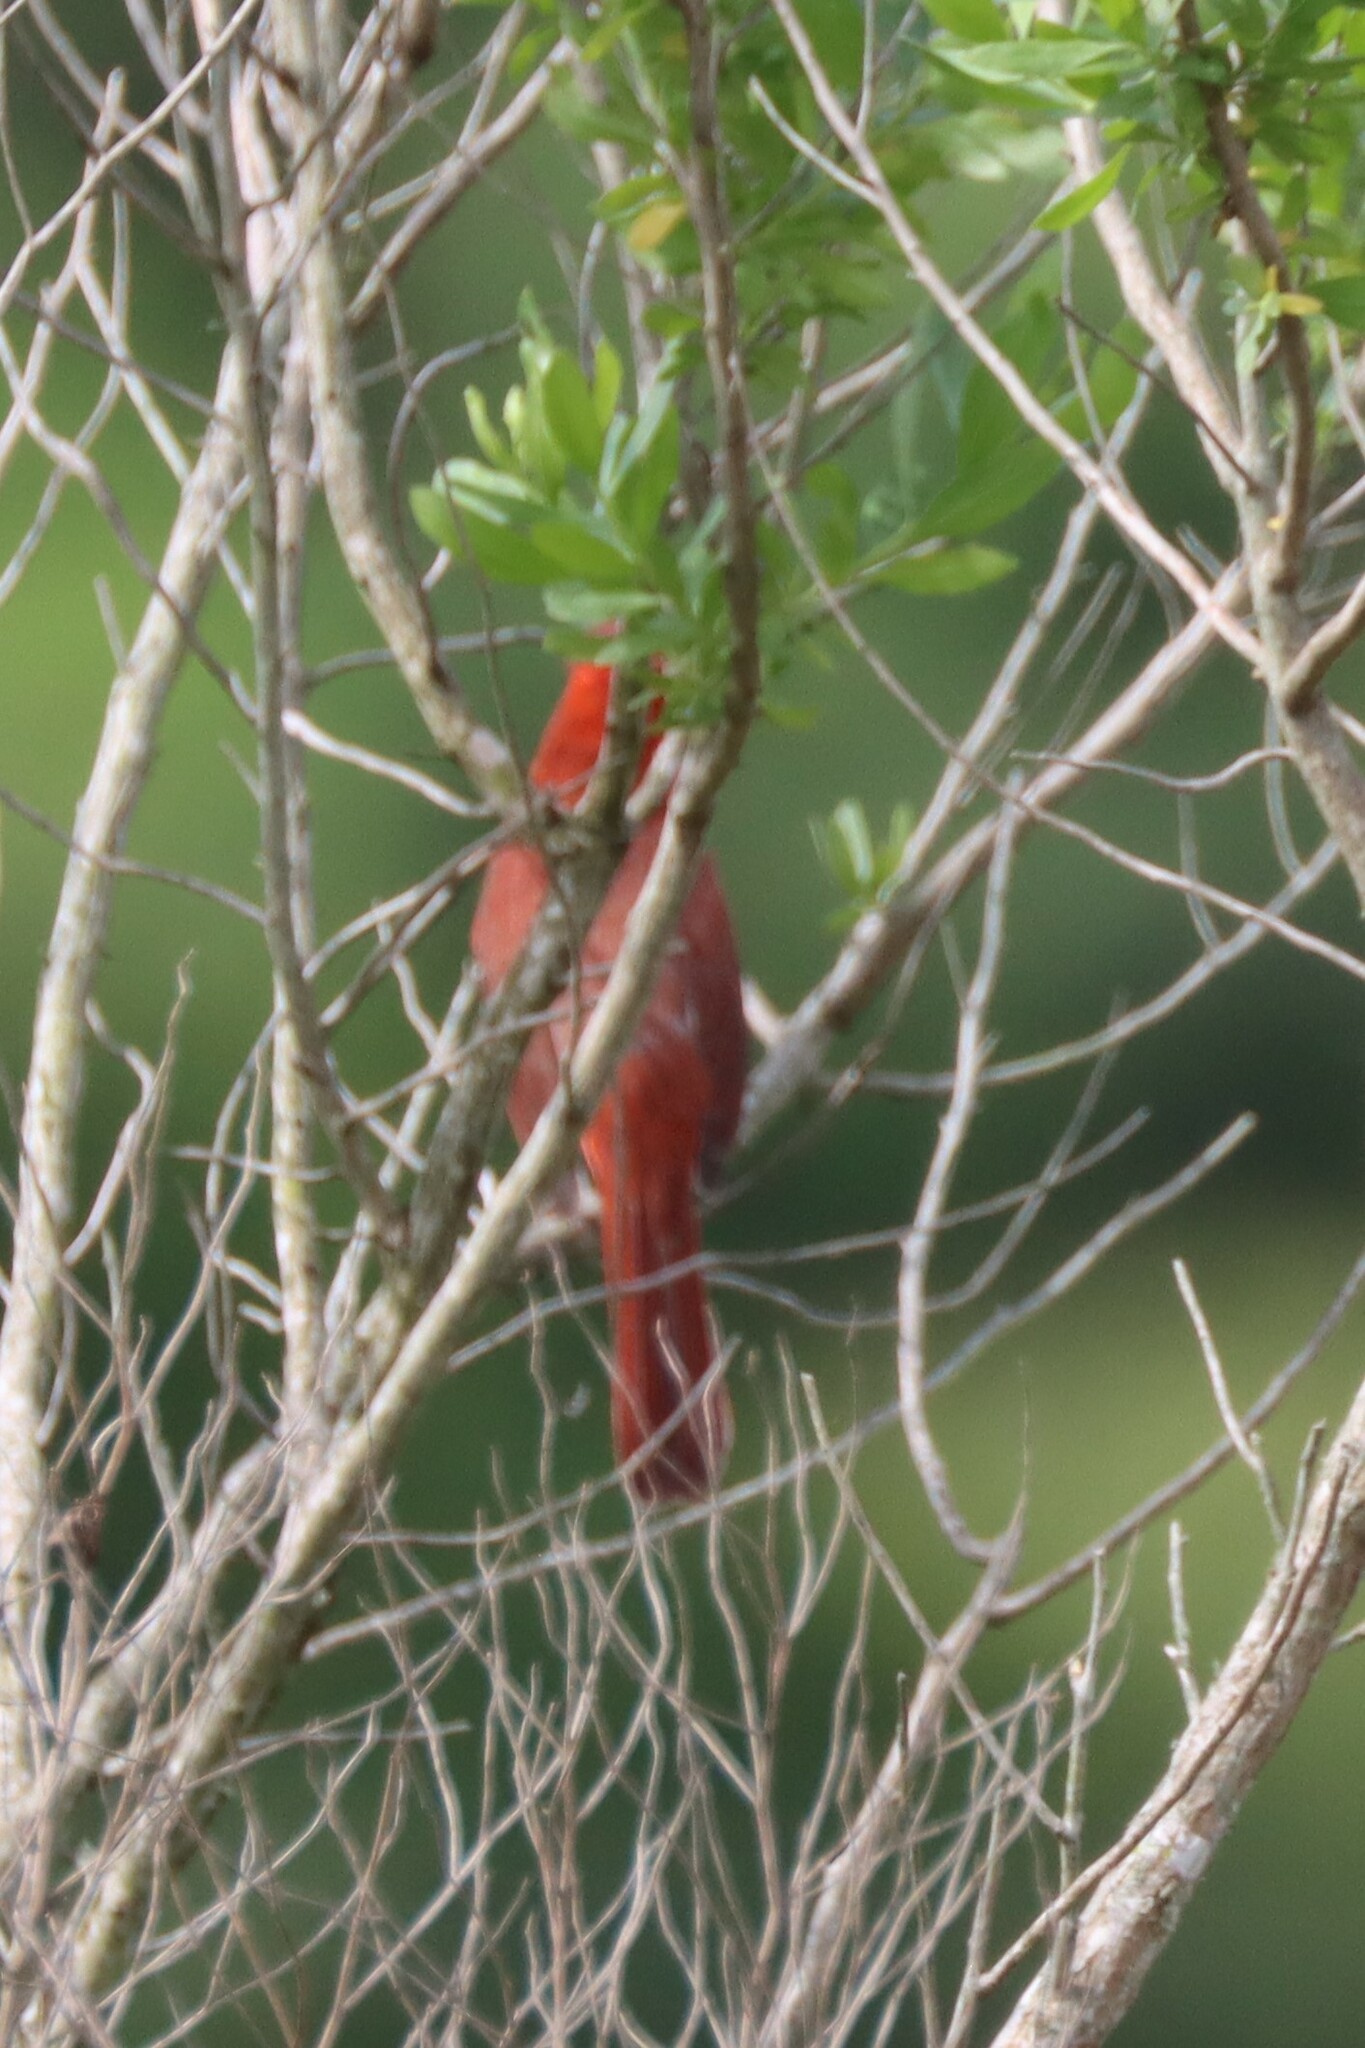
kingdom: Animalia
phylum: Chordata
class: Aves
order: Passeriformes
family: Cardinalidae
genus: Cardinalis
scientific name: Cardinalis cardinalis
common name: Northern cardinal
